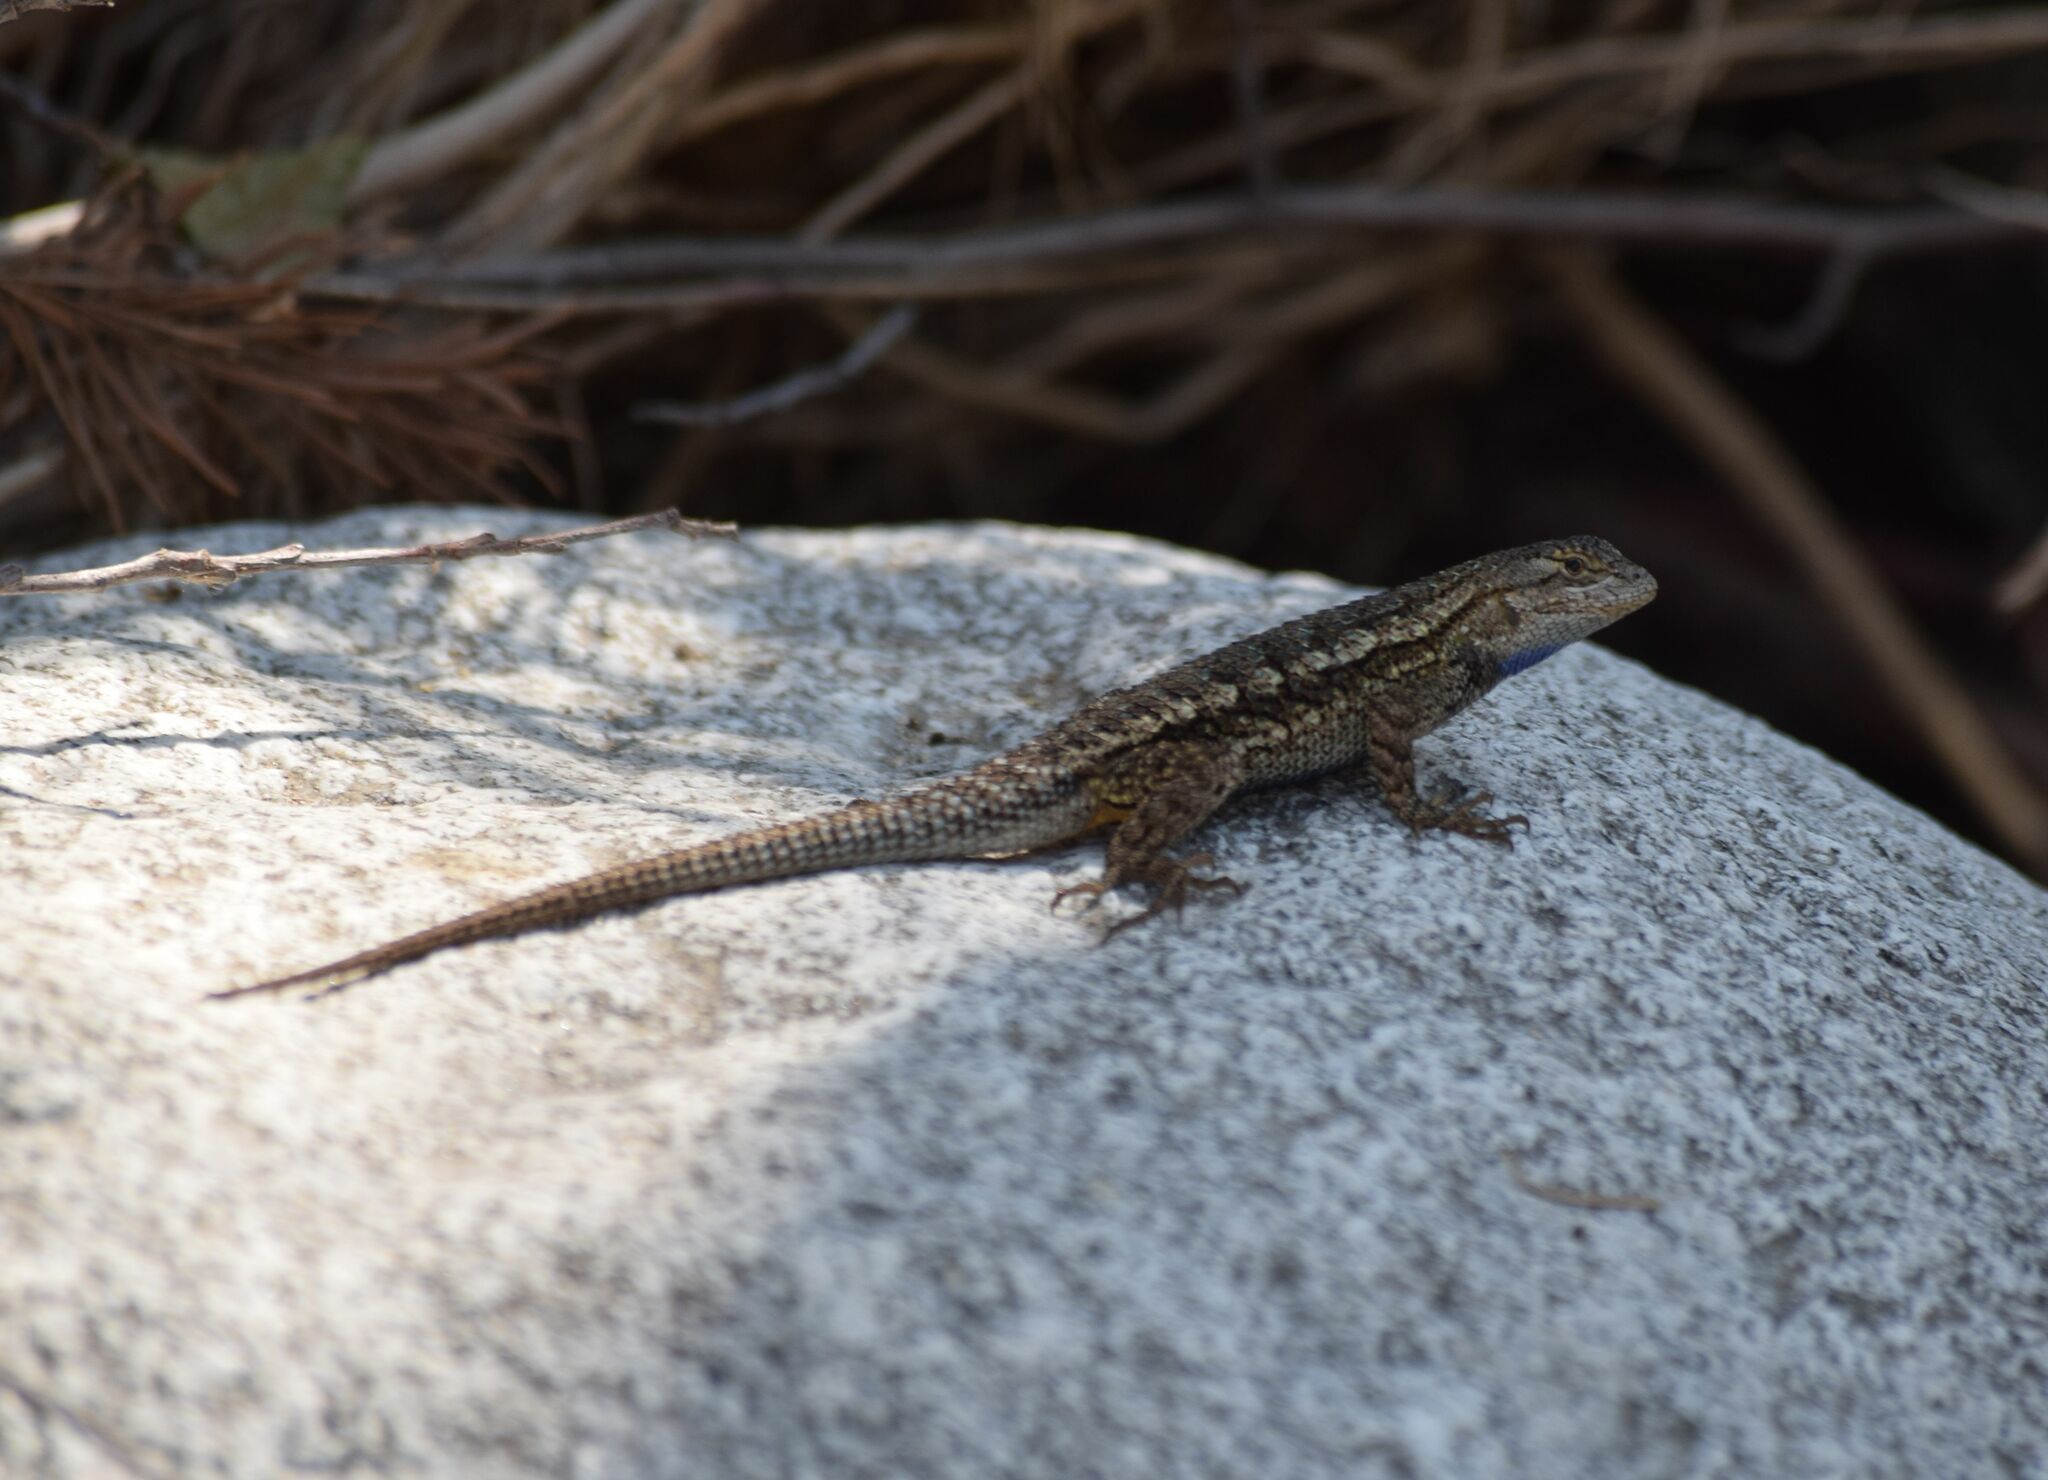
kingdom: Animalia
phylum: Chordata
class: Squamata
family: Phrynosomatidae
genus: Sceloporus
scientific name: Sceloporus occidentalis
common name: Western fence lizard
